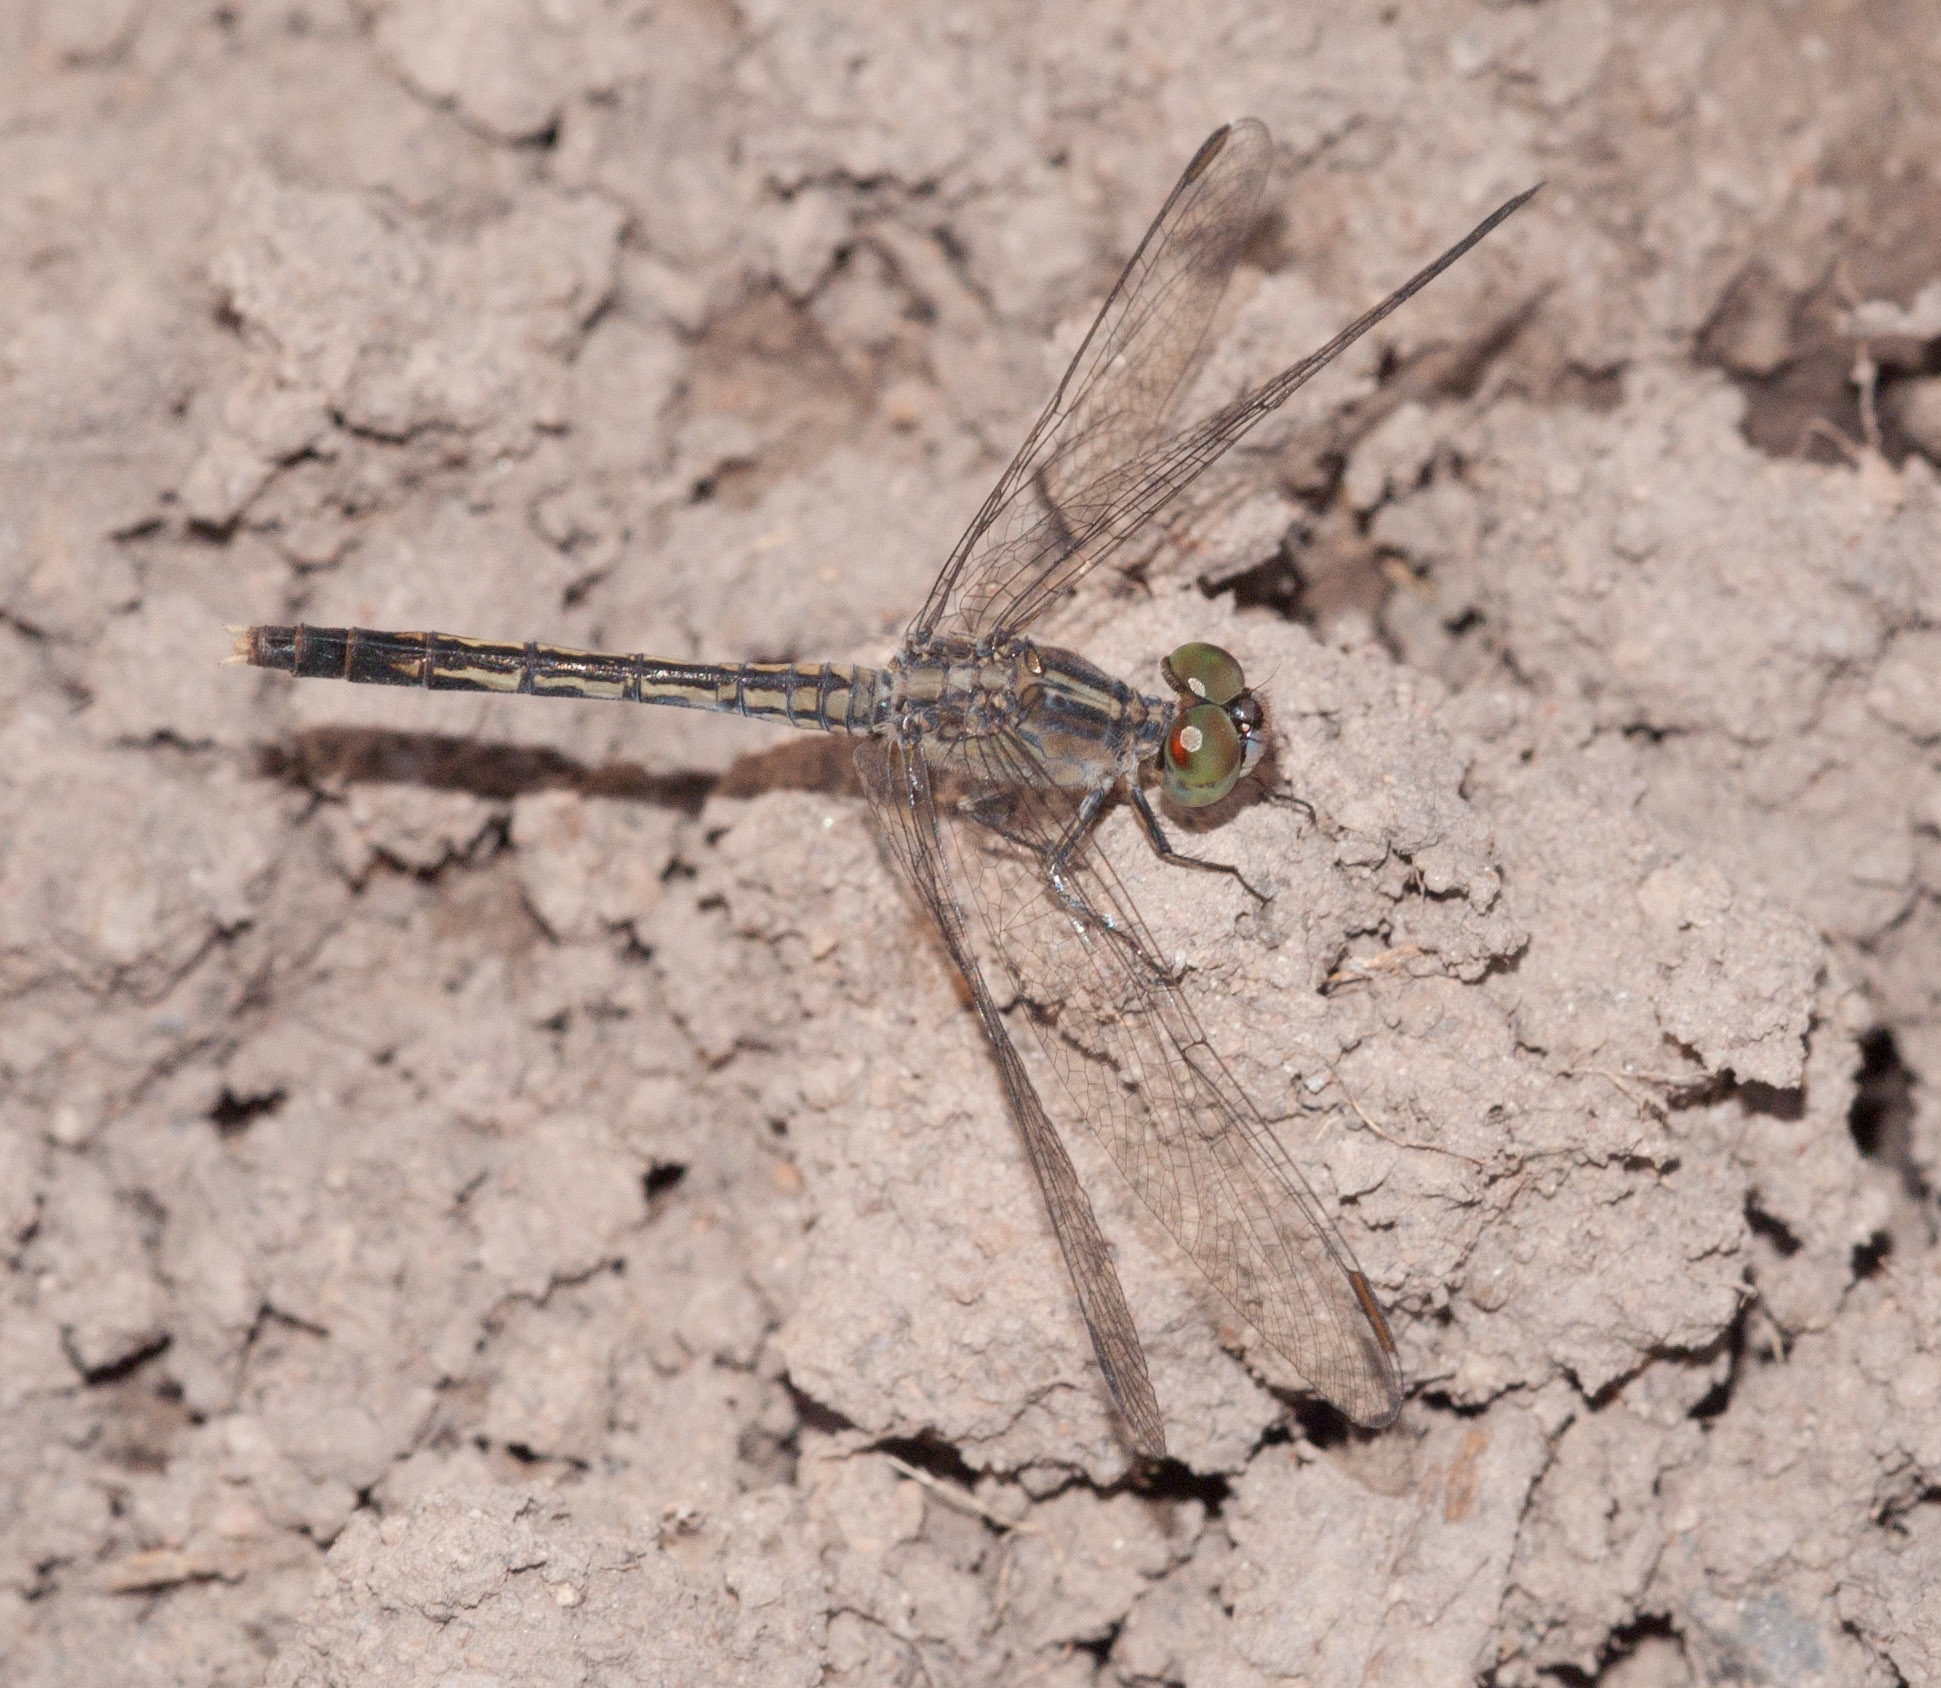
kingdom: Animalia
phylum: Arthropoda
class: Insecta
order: Odonata
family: Libellulidae
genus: Diplacodes
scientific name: Diplacodes trivialis
